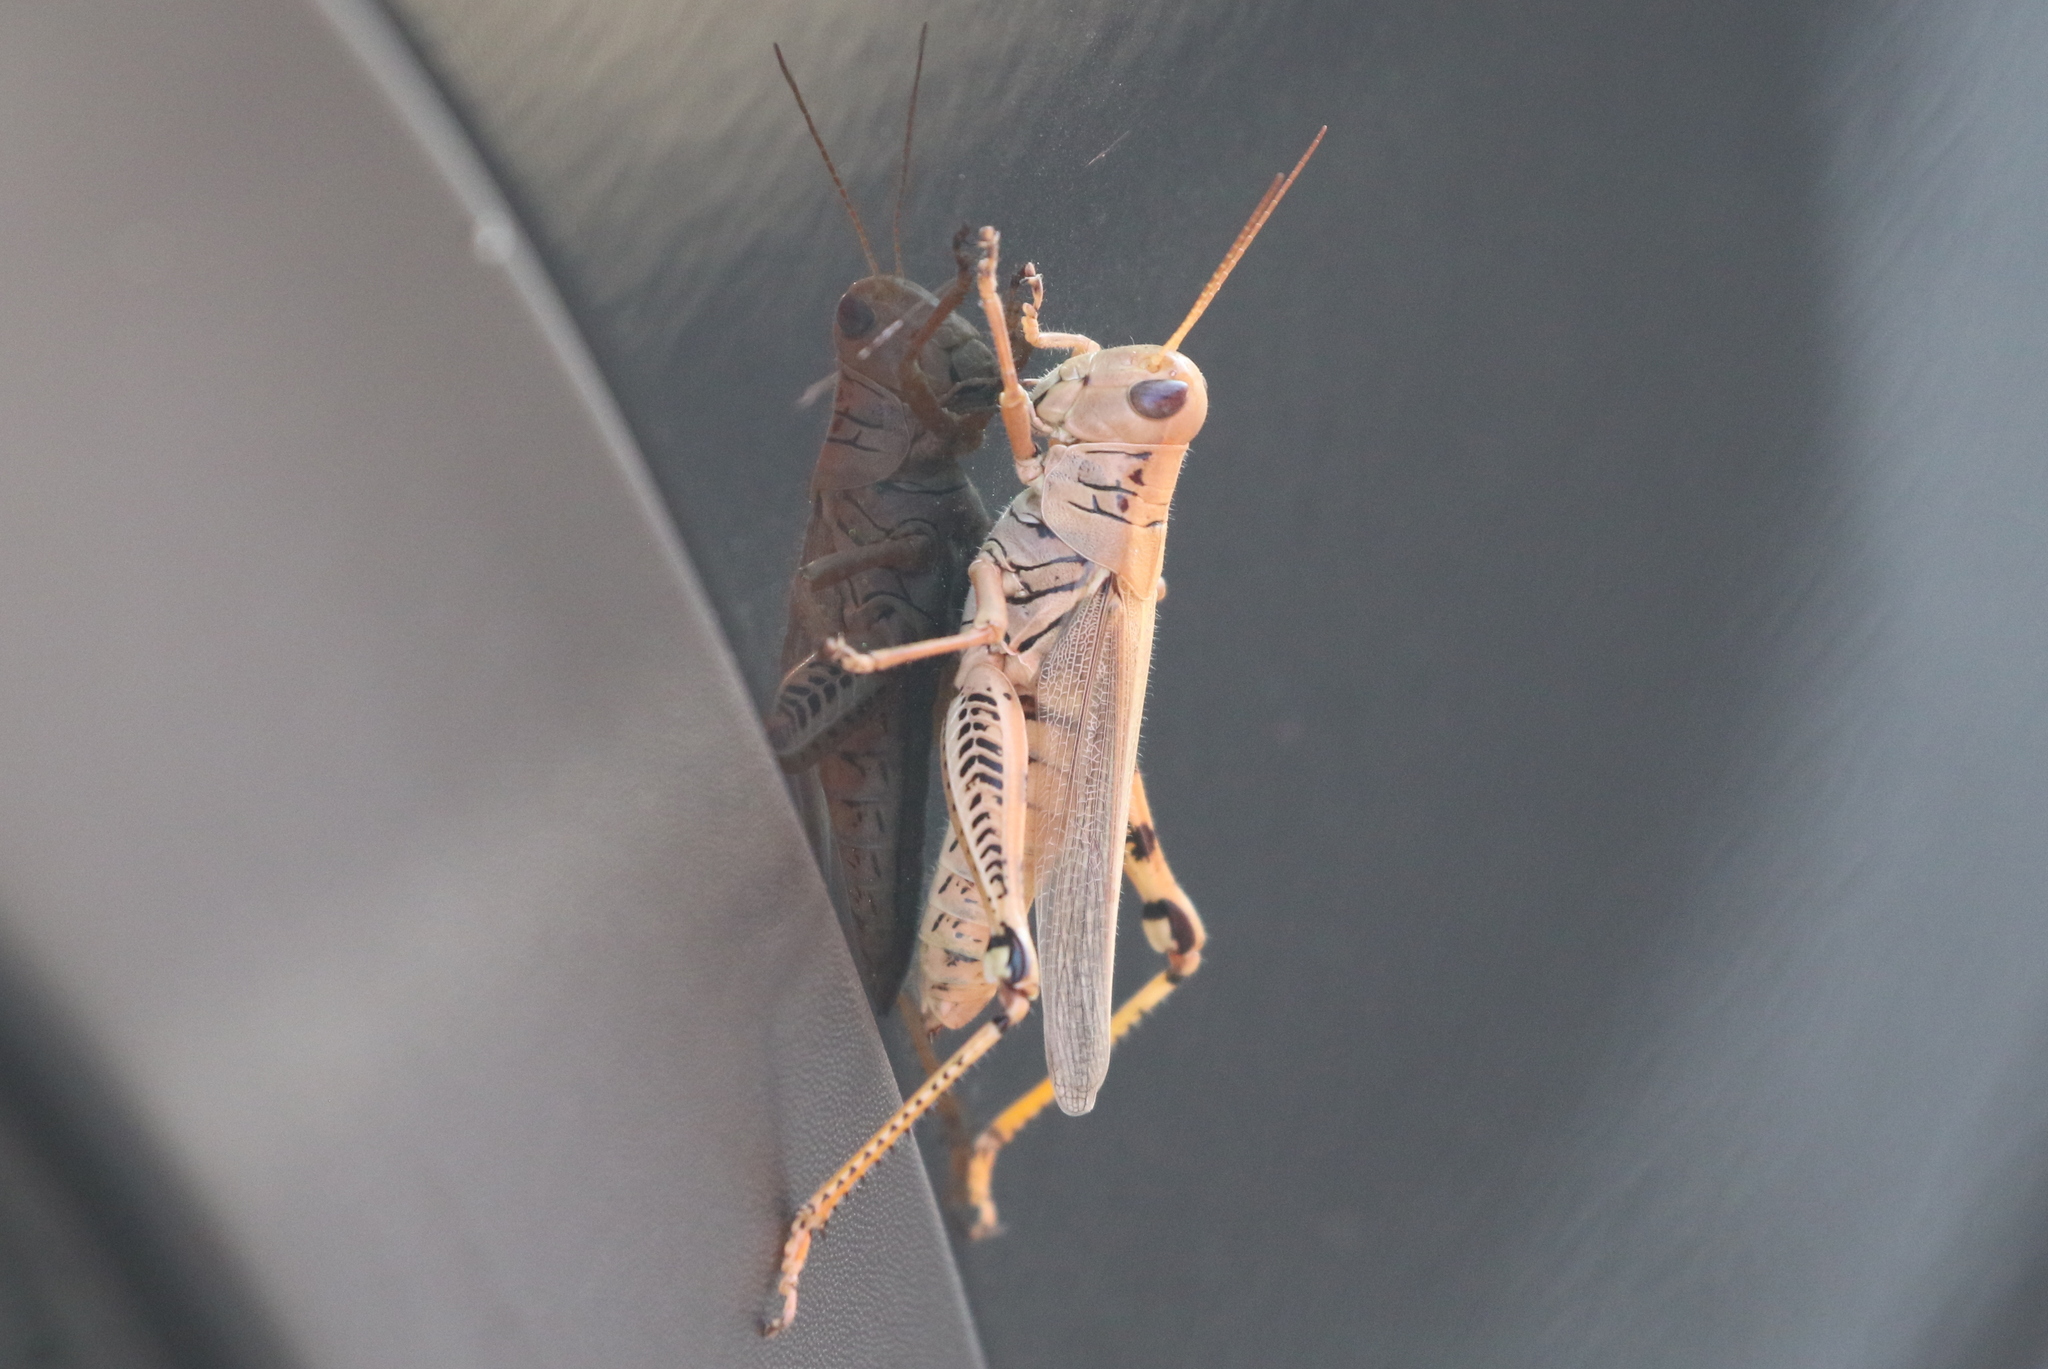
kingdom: Animalia
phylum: Arthropoda
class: Insecta
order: Orthoptera
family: Acrididae
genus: Melanoplus
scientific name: Melanoplus differentialis
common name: Differential grasshopper
